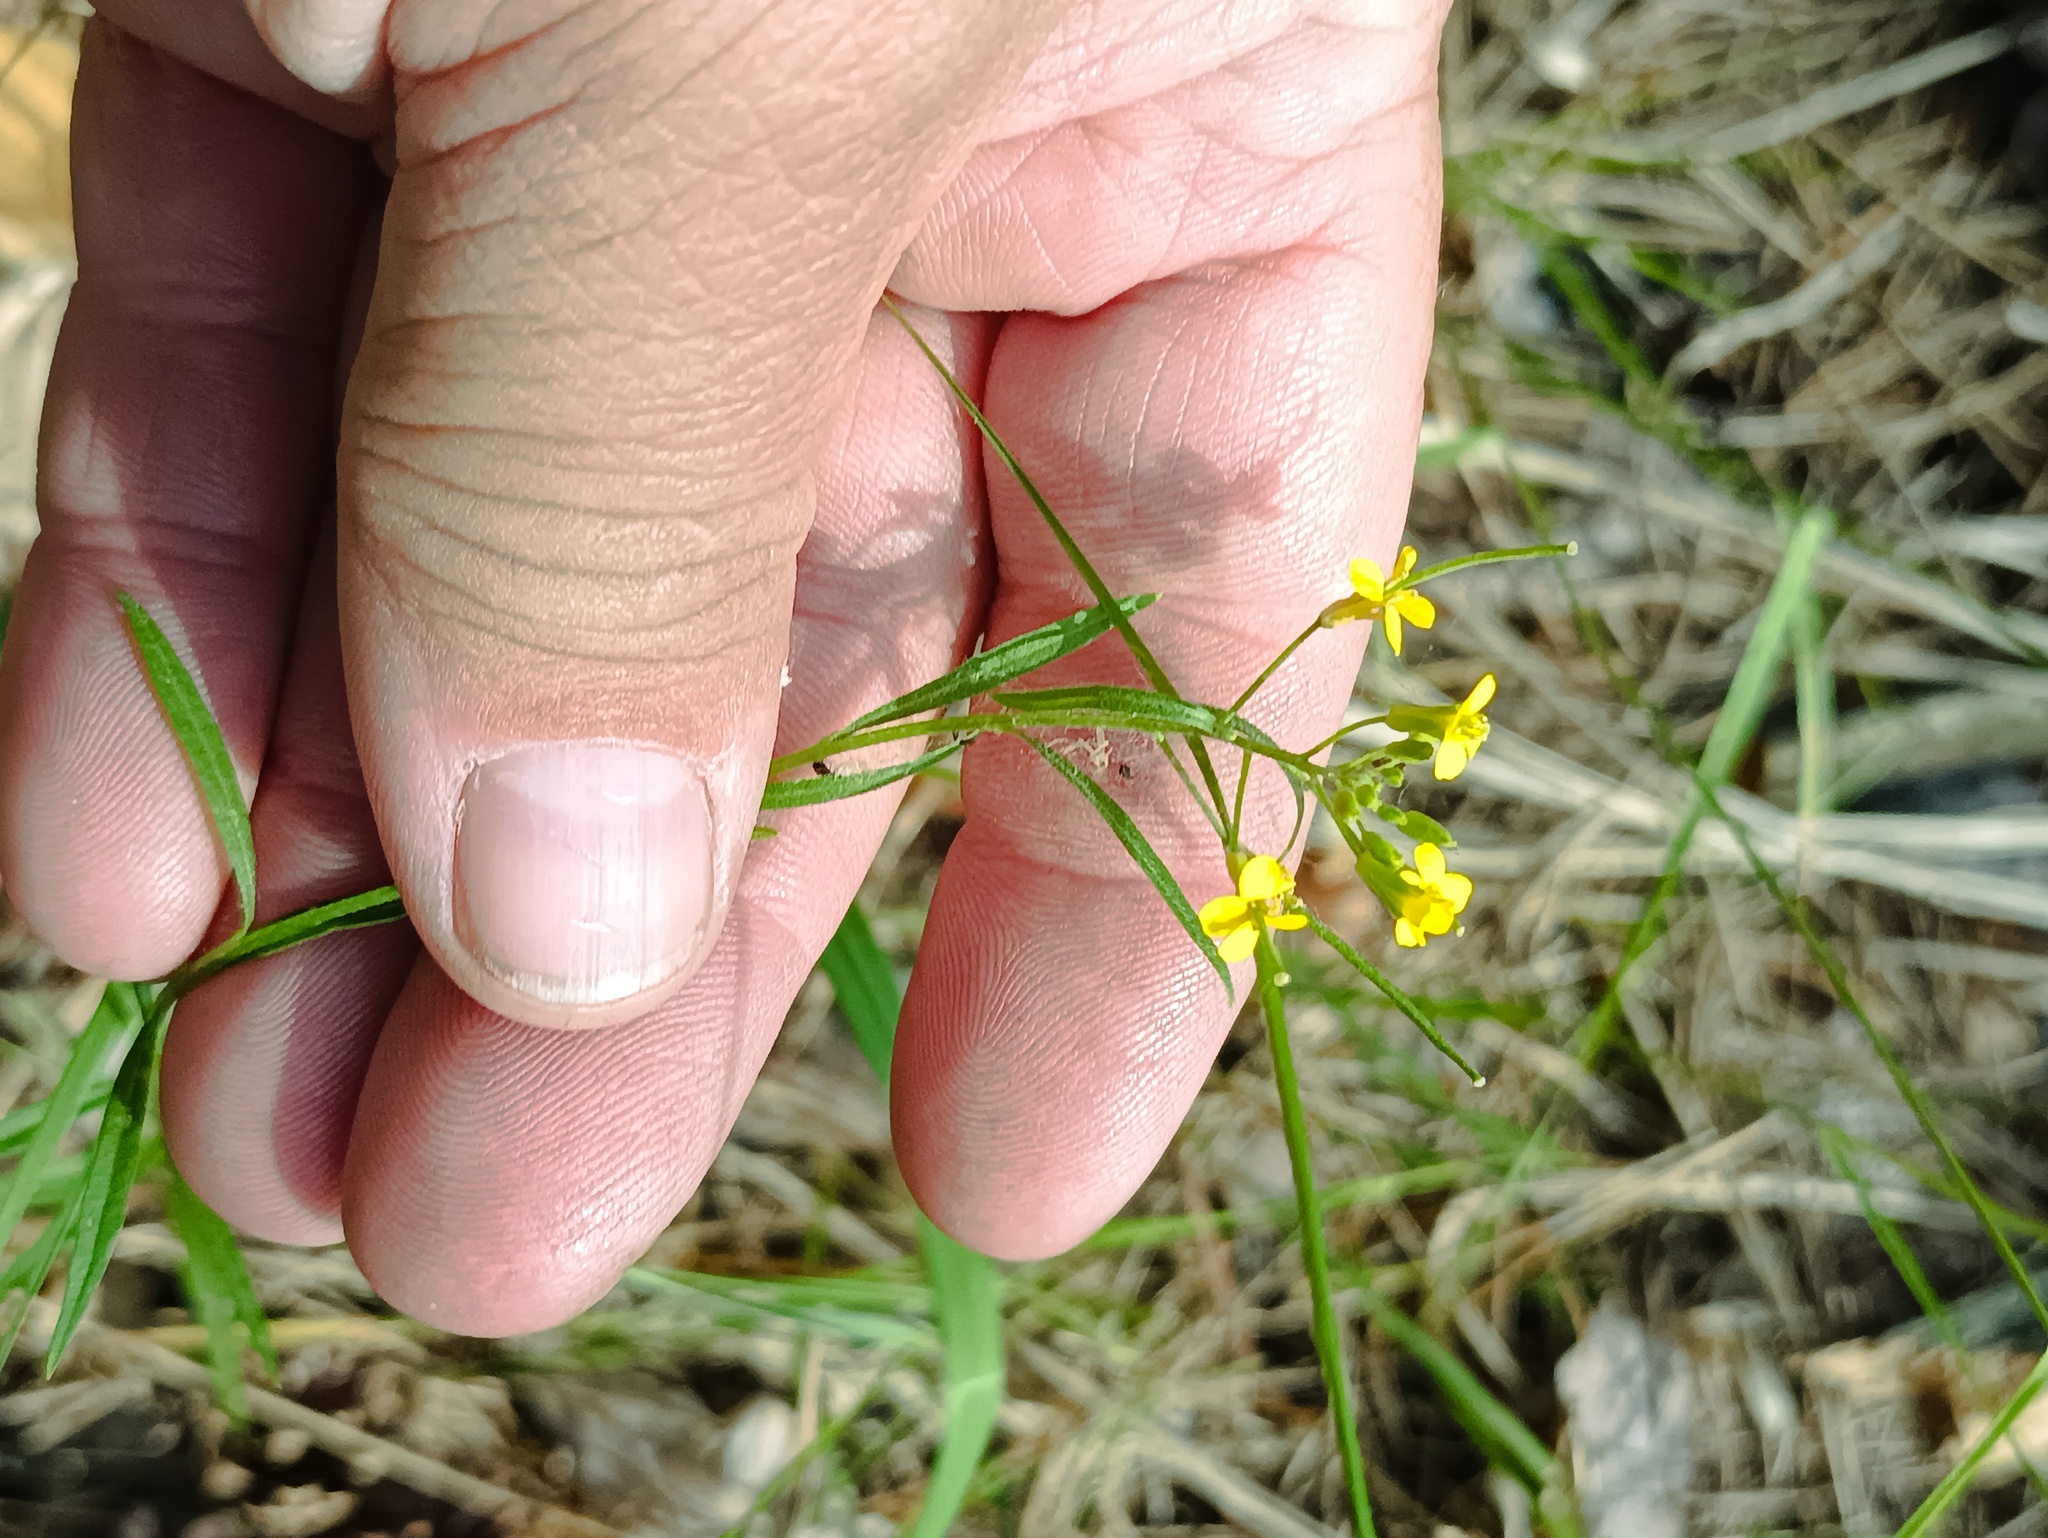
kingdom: Plantae
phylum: Tracheophyta
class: Magnoliopsida
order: Brassicales
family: Brassicaceae
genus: Erysimum
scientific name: Erysimum cheiranthoides
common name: Treacle mustard
